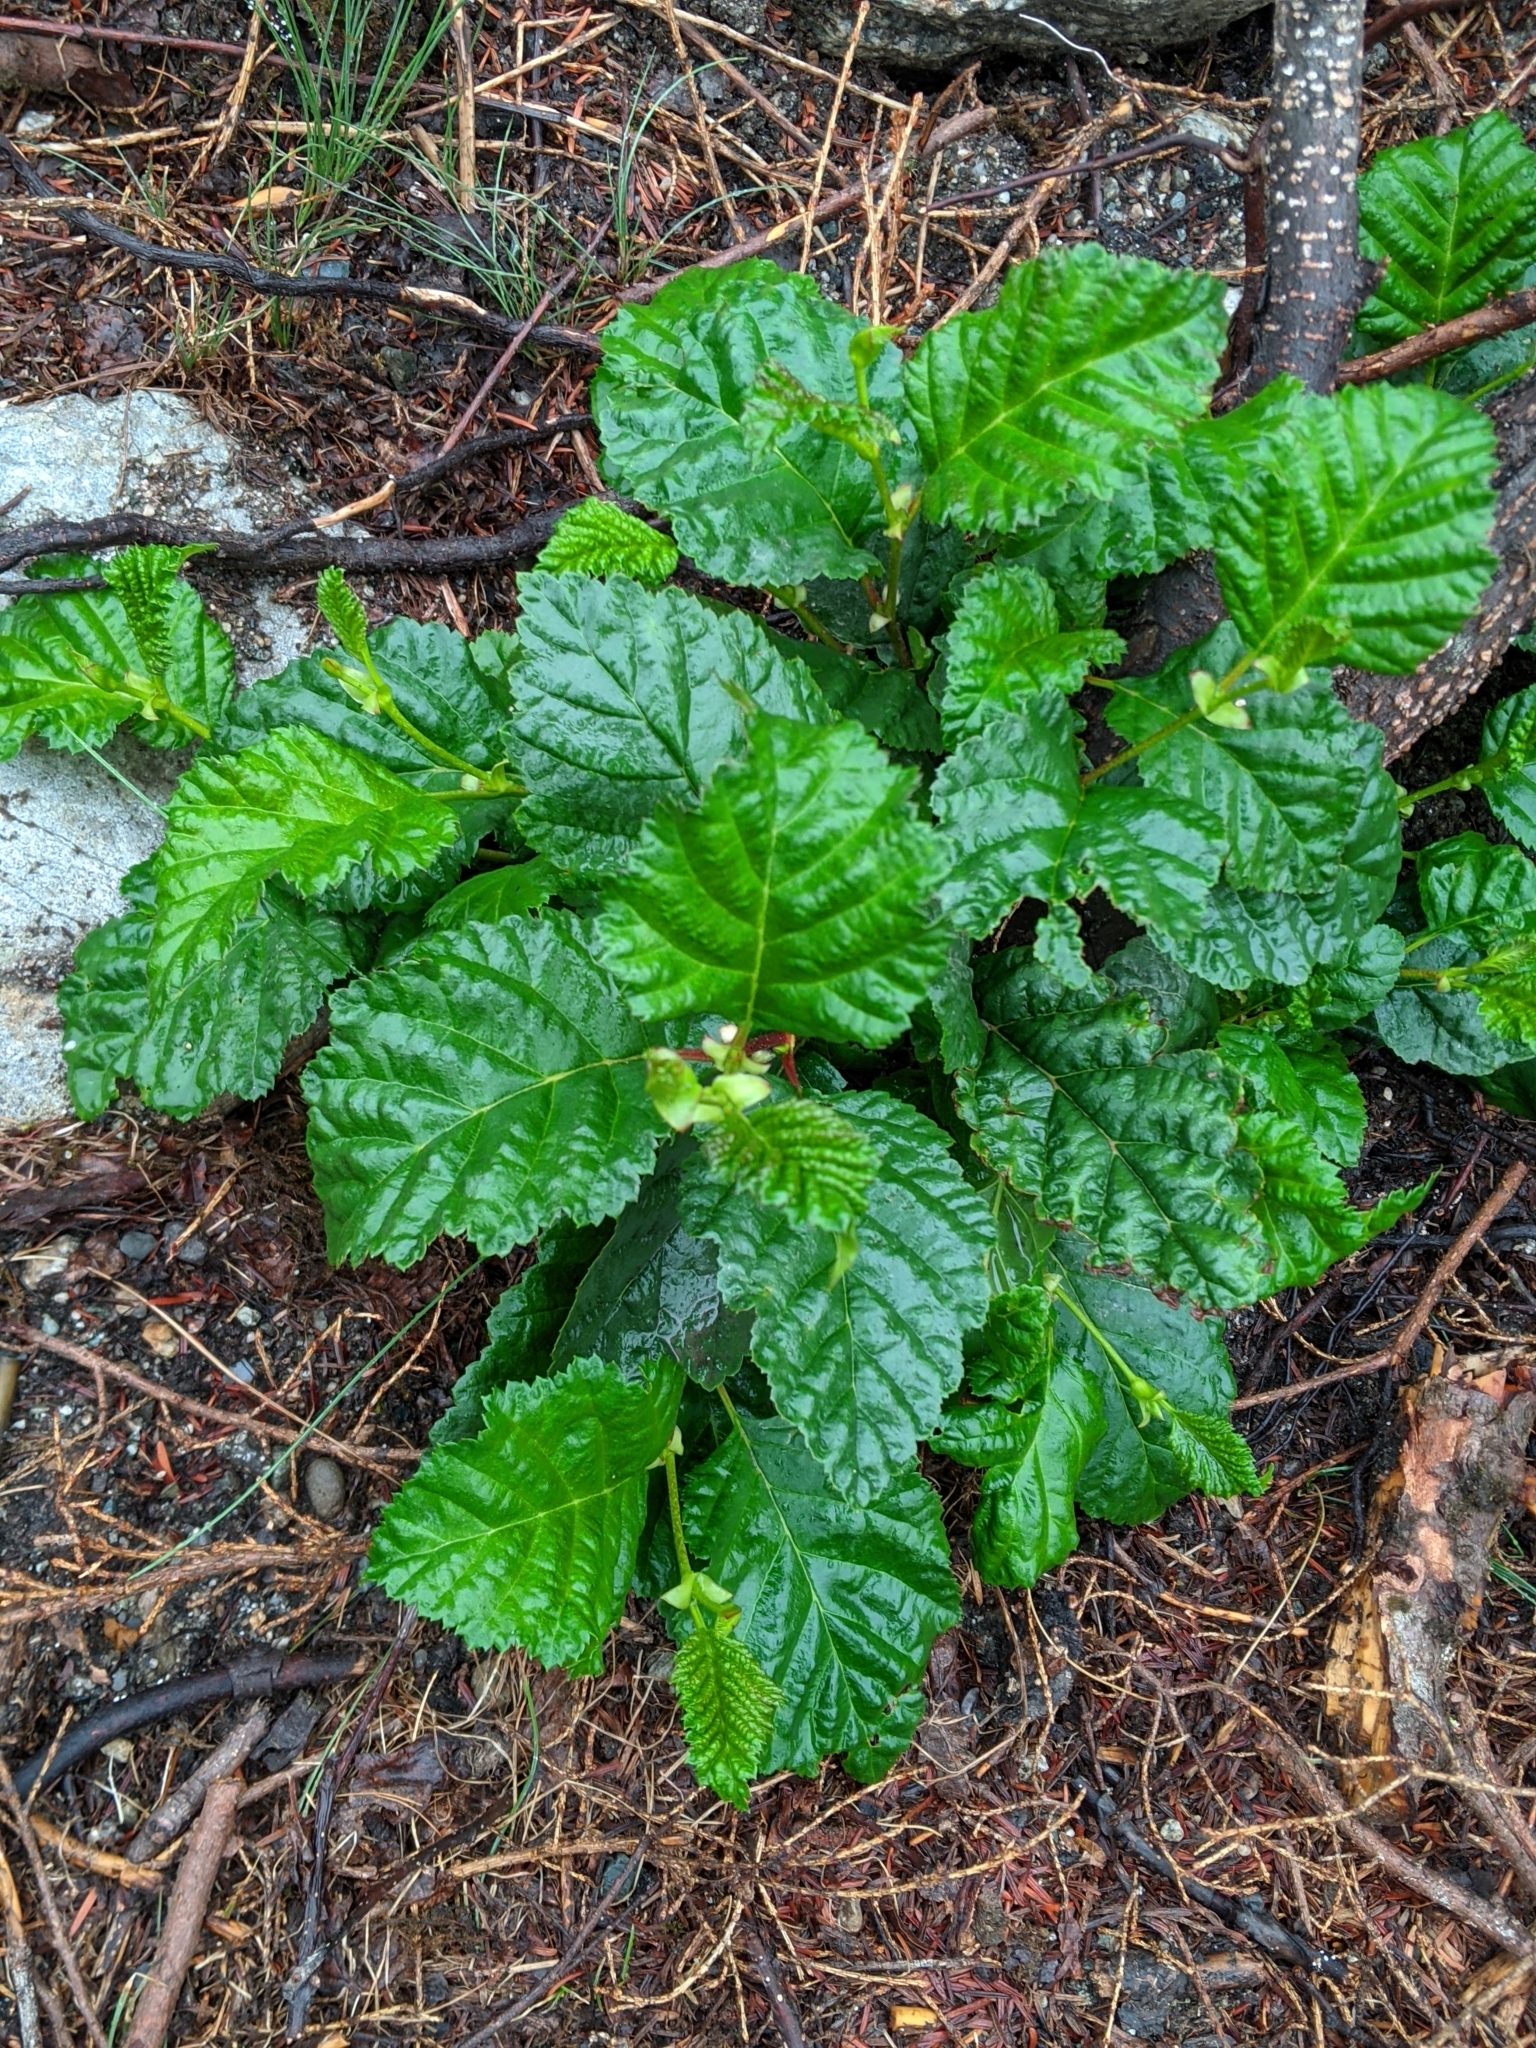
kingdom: Plantae
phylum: Tracheophyta
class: Magnoliopsida
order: Fagales
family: Betulaceae
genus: Alnus
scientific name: Alnus alnobetula
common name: Green alder
